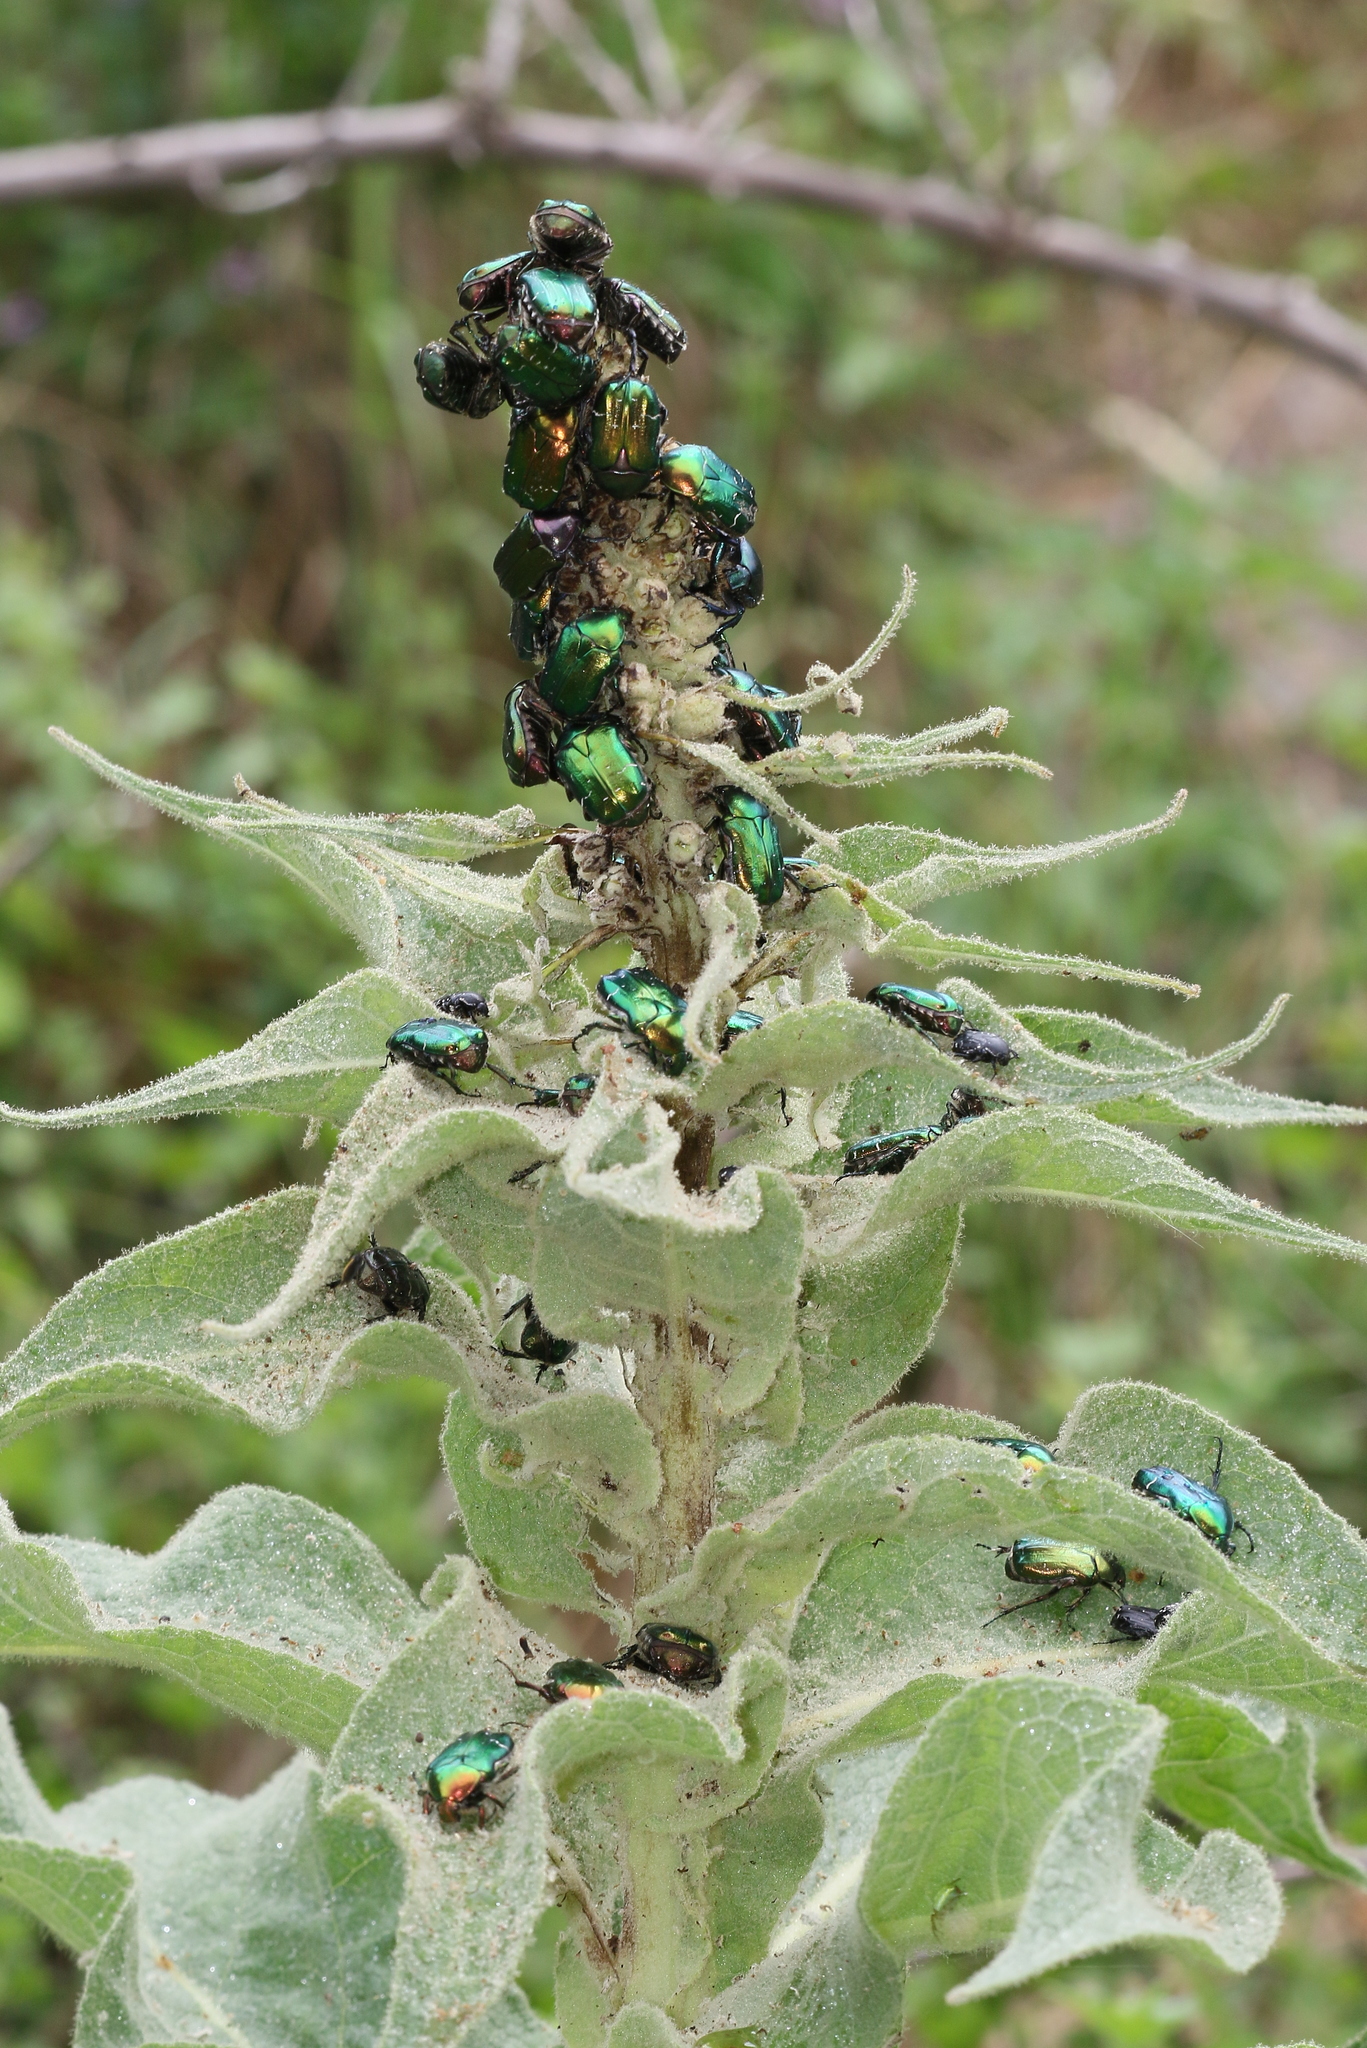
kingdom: Animalia
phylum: Arthropoda
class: Insecta
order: Coleoptera
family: Scarabaeidae
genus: Cetonia
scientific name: Cetonia aurata
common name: Rose chafer
